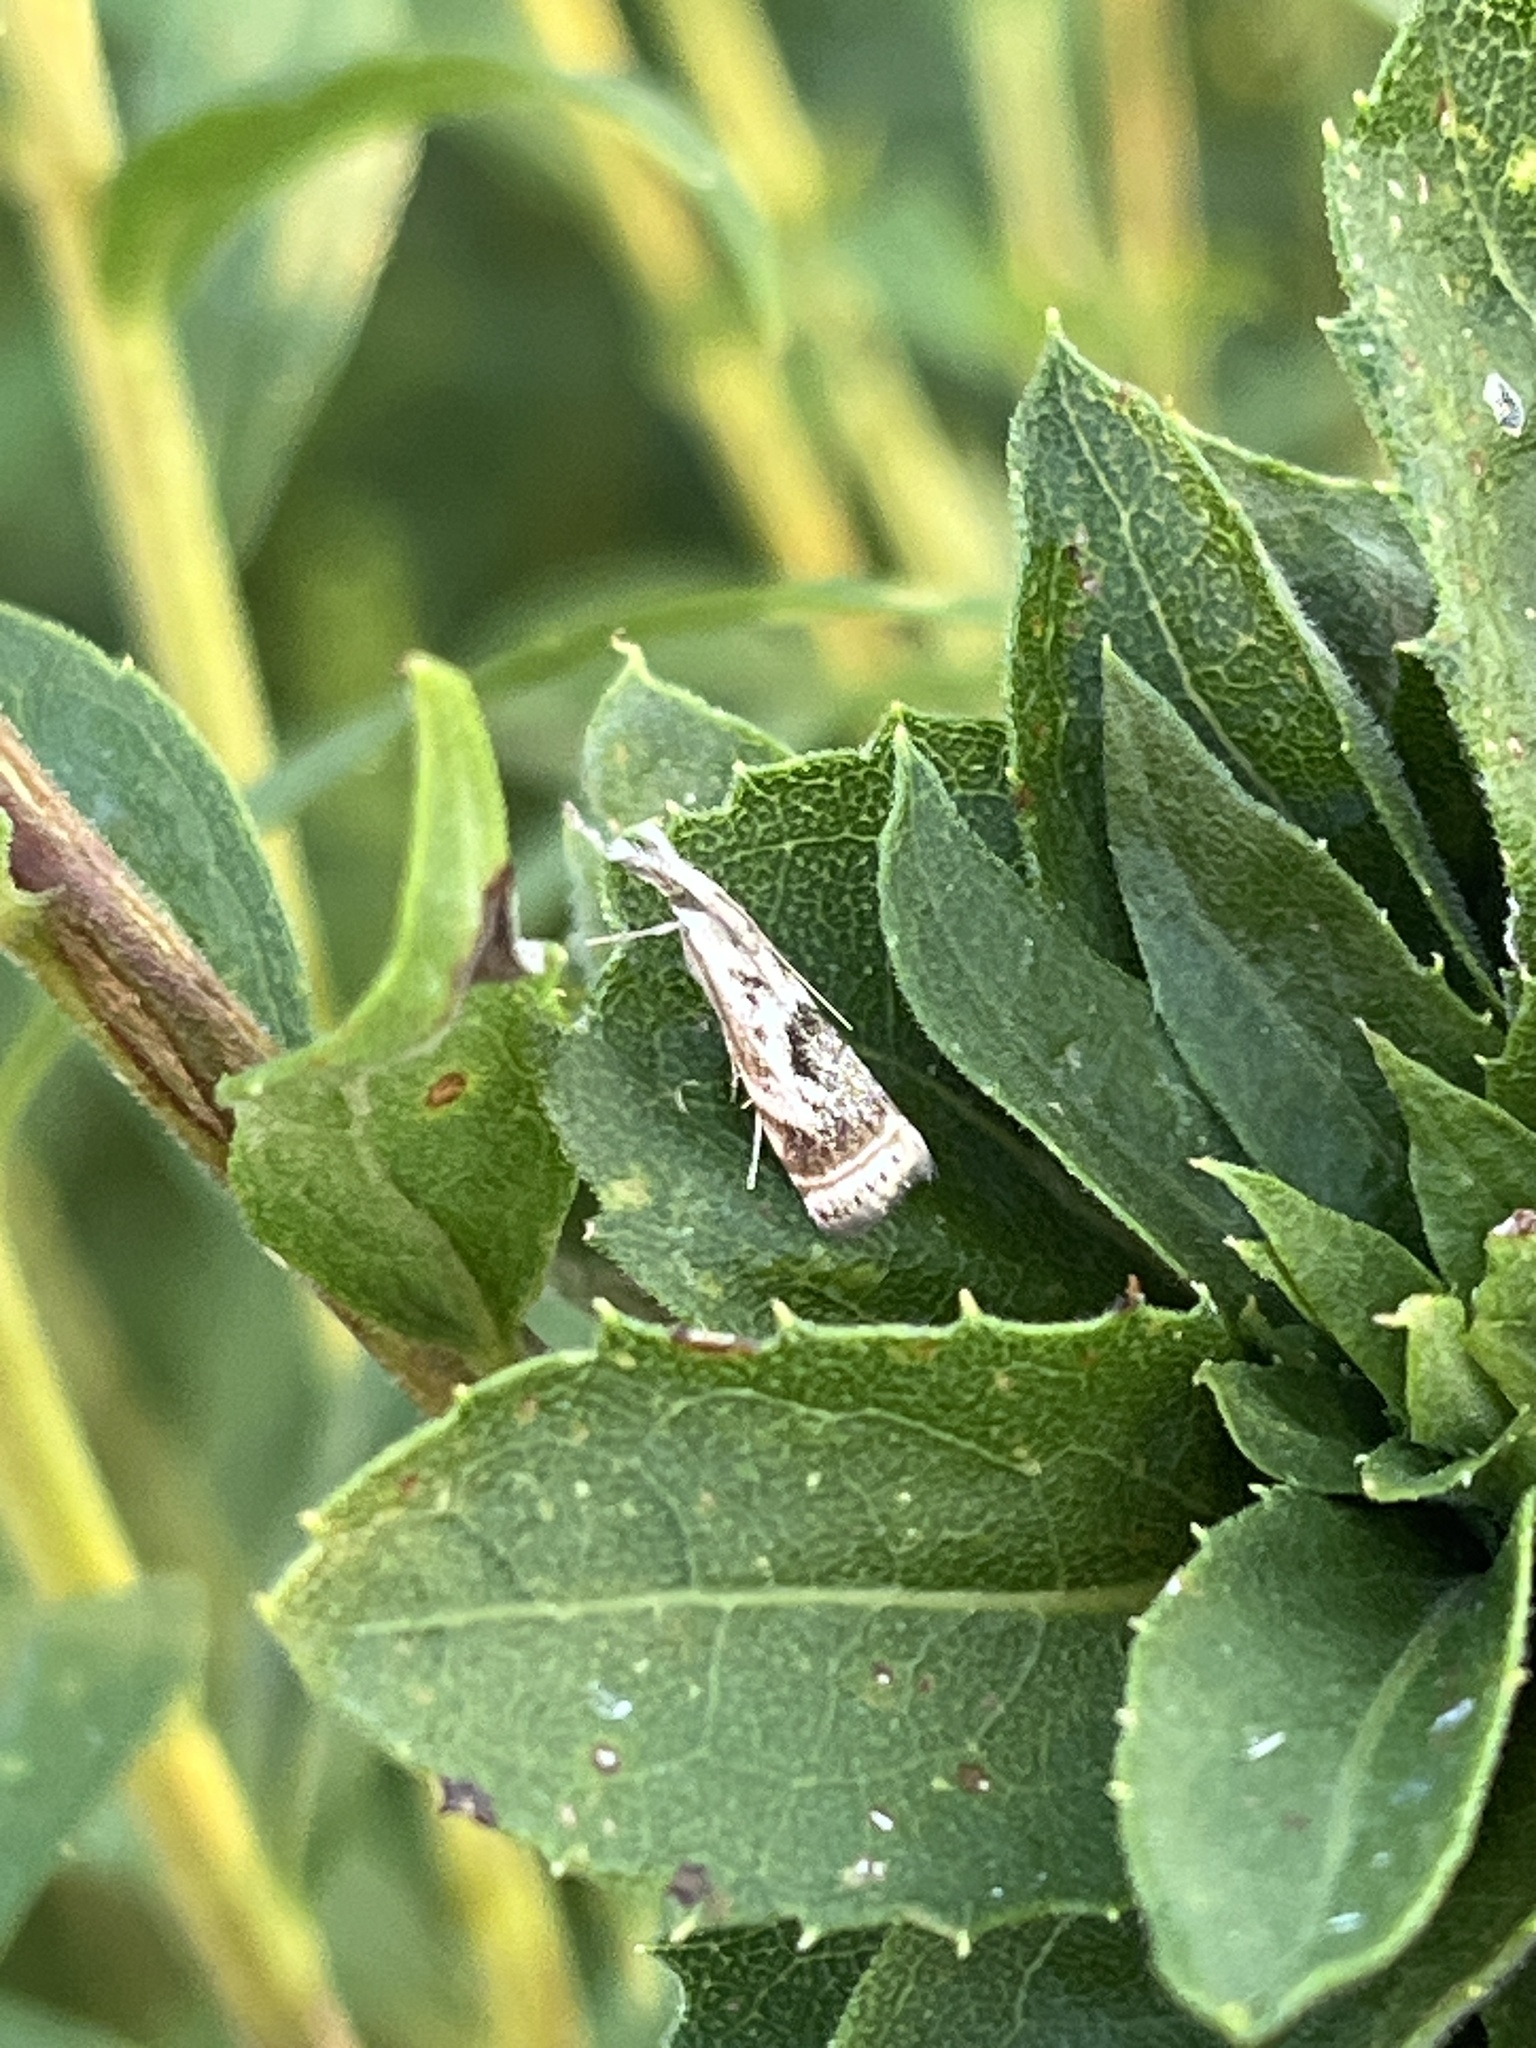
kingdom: Animalia
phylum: Arthropoda
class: Insecta
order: Lepidoptera
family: Crambidae
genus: Microcrambus
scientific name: Microcrambus elegans
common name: Elegant grass-veneer
